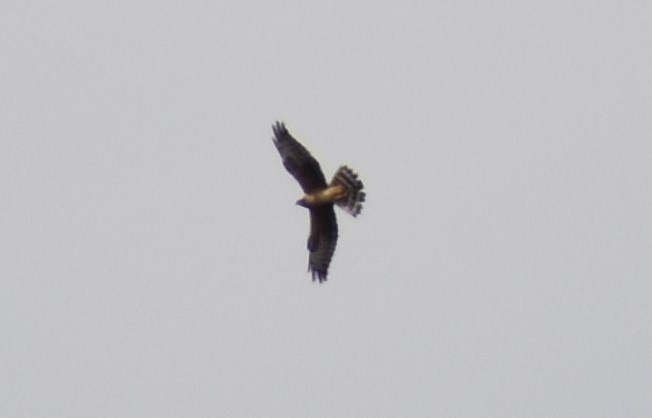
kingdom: Animalia
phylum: Chordata
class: Aves
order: Accipitriformes
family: Accipitridae
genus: Circus
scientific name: Circus macrourus
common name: Pallid harrier
